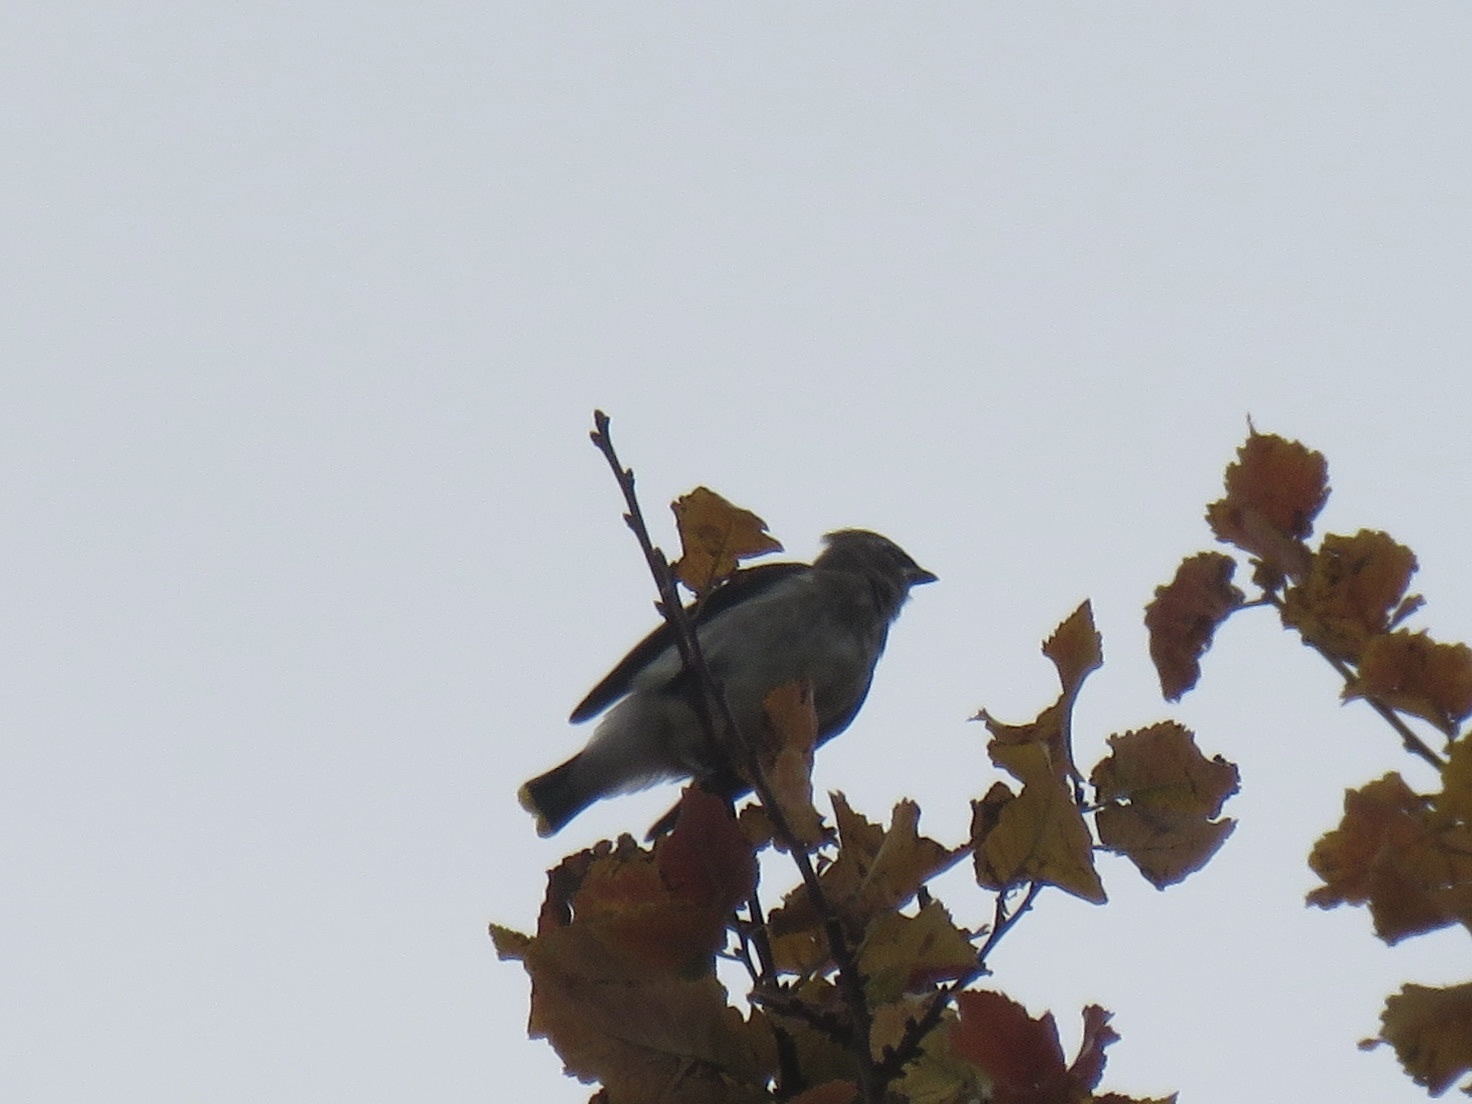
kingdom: Animalia
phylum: Chordata
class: Aves
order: Passeriformes
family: Bombycillidae
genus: Bombycilla
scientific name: Bombycilla cedrorum
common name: Cedar waxwing
